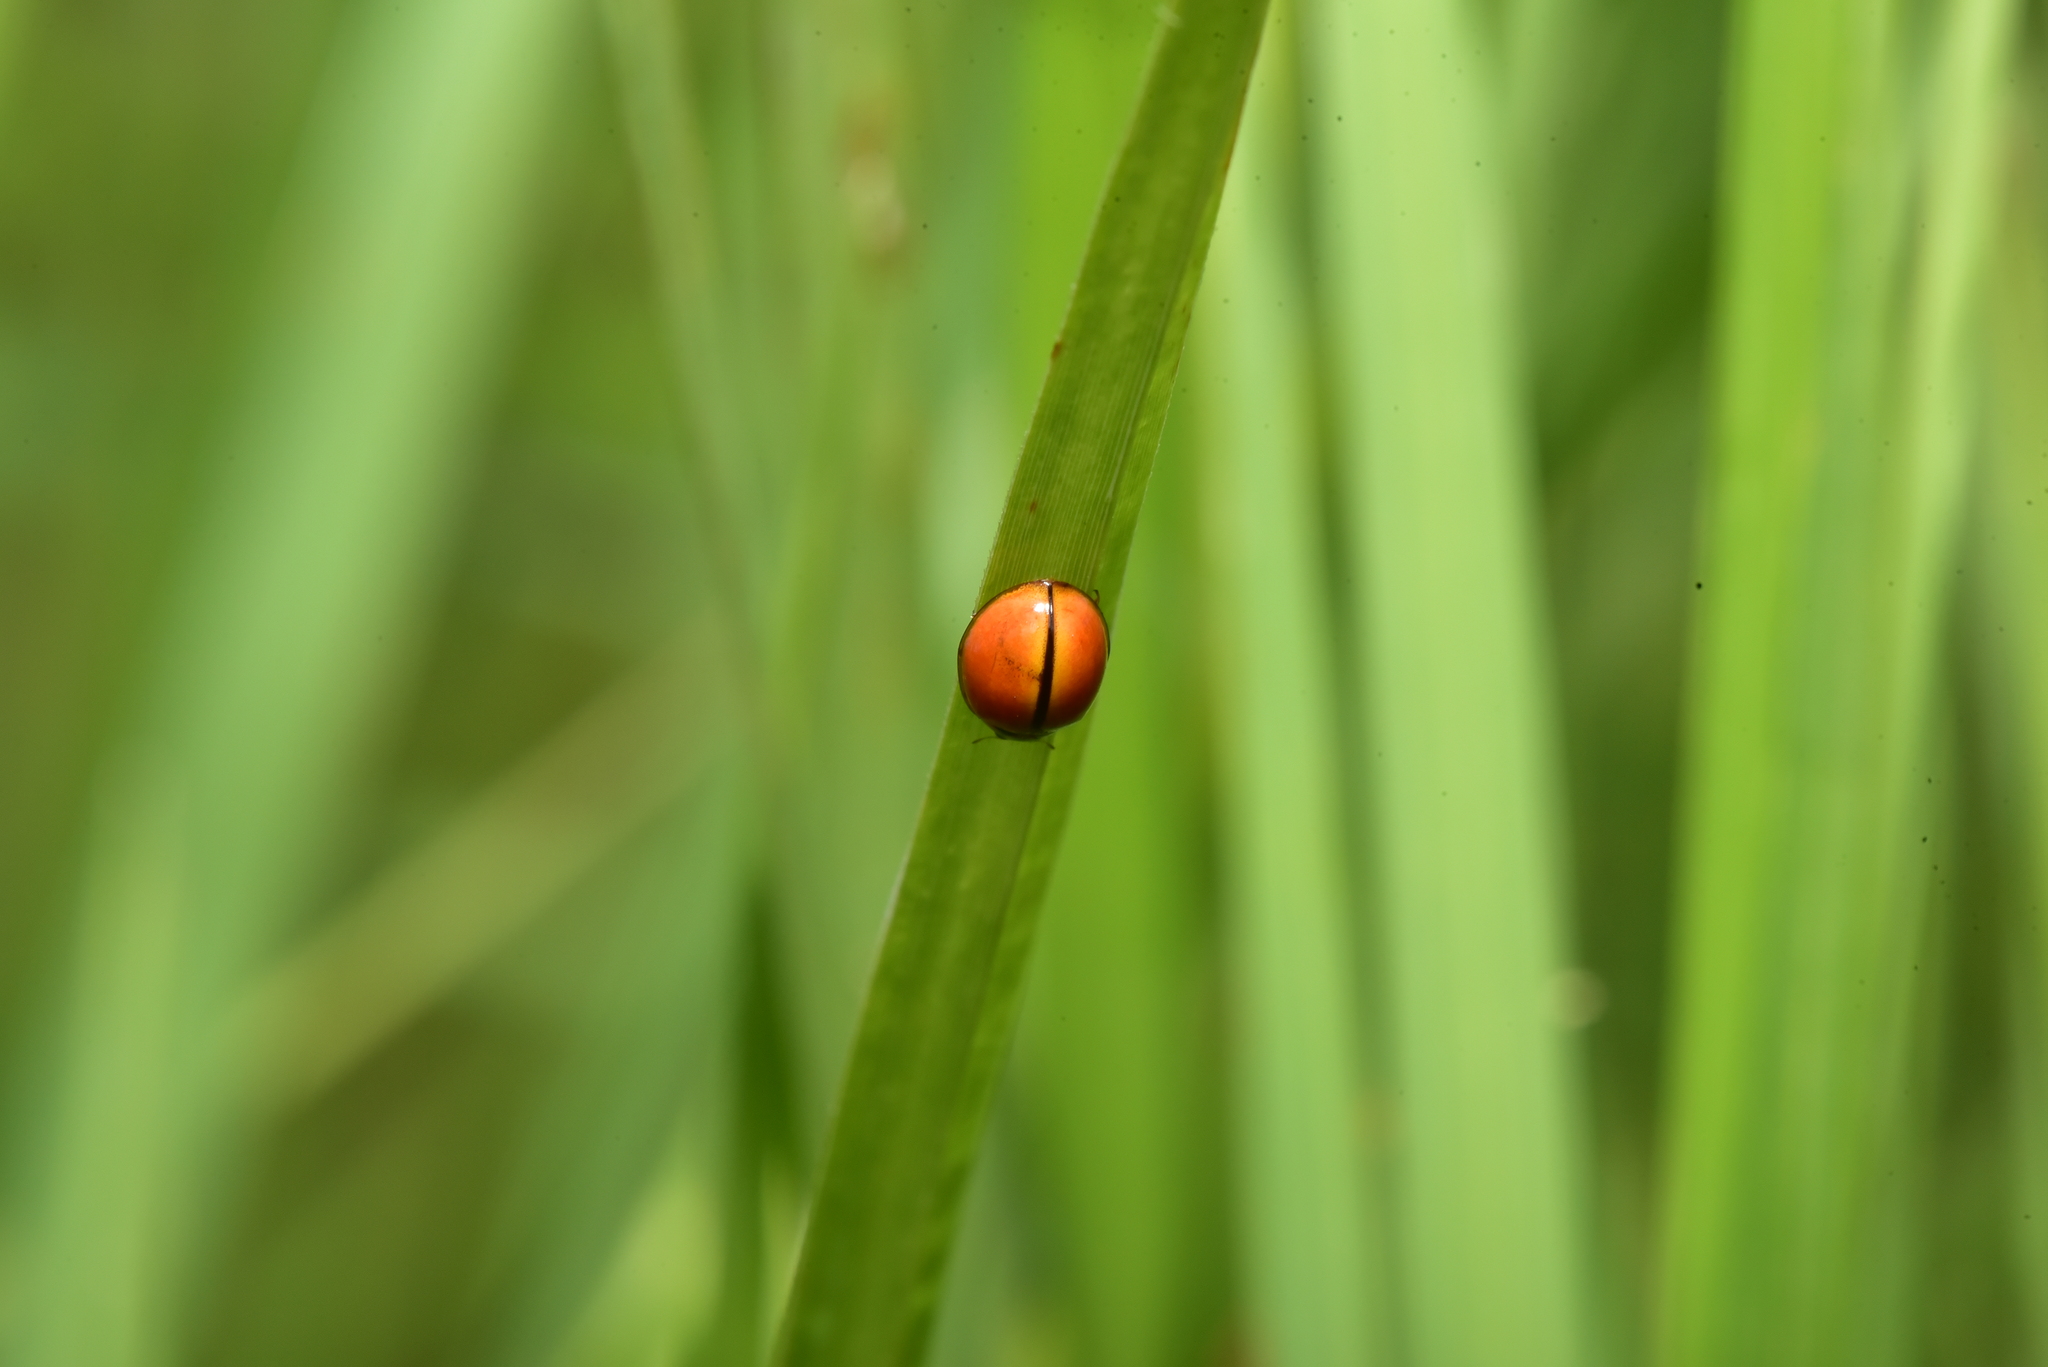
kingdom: Animalia
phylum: Arthropoda
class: Insecta
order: Coleoptera
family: Coccinellidae
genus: Micraspis
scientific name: Micraspis discolor
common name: Lady beetle
